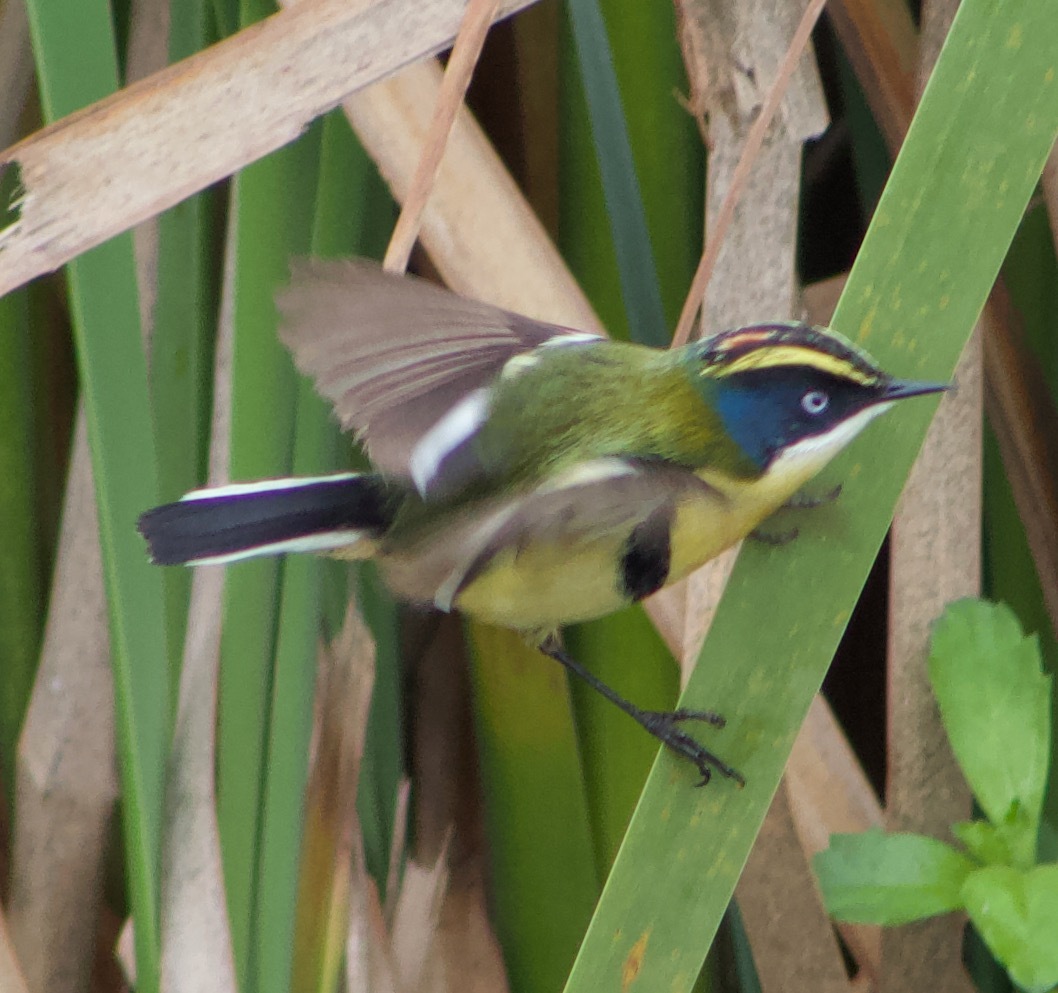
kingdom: Animalia
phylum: Chordata
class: Aves
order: Passeriformes
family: Tyrannidae
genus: Tachuris
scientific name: Tachuris rubrigastra
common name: Many-colored rush tyrant
